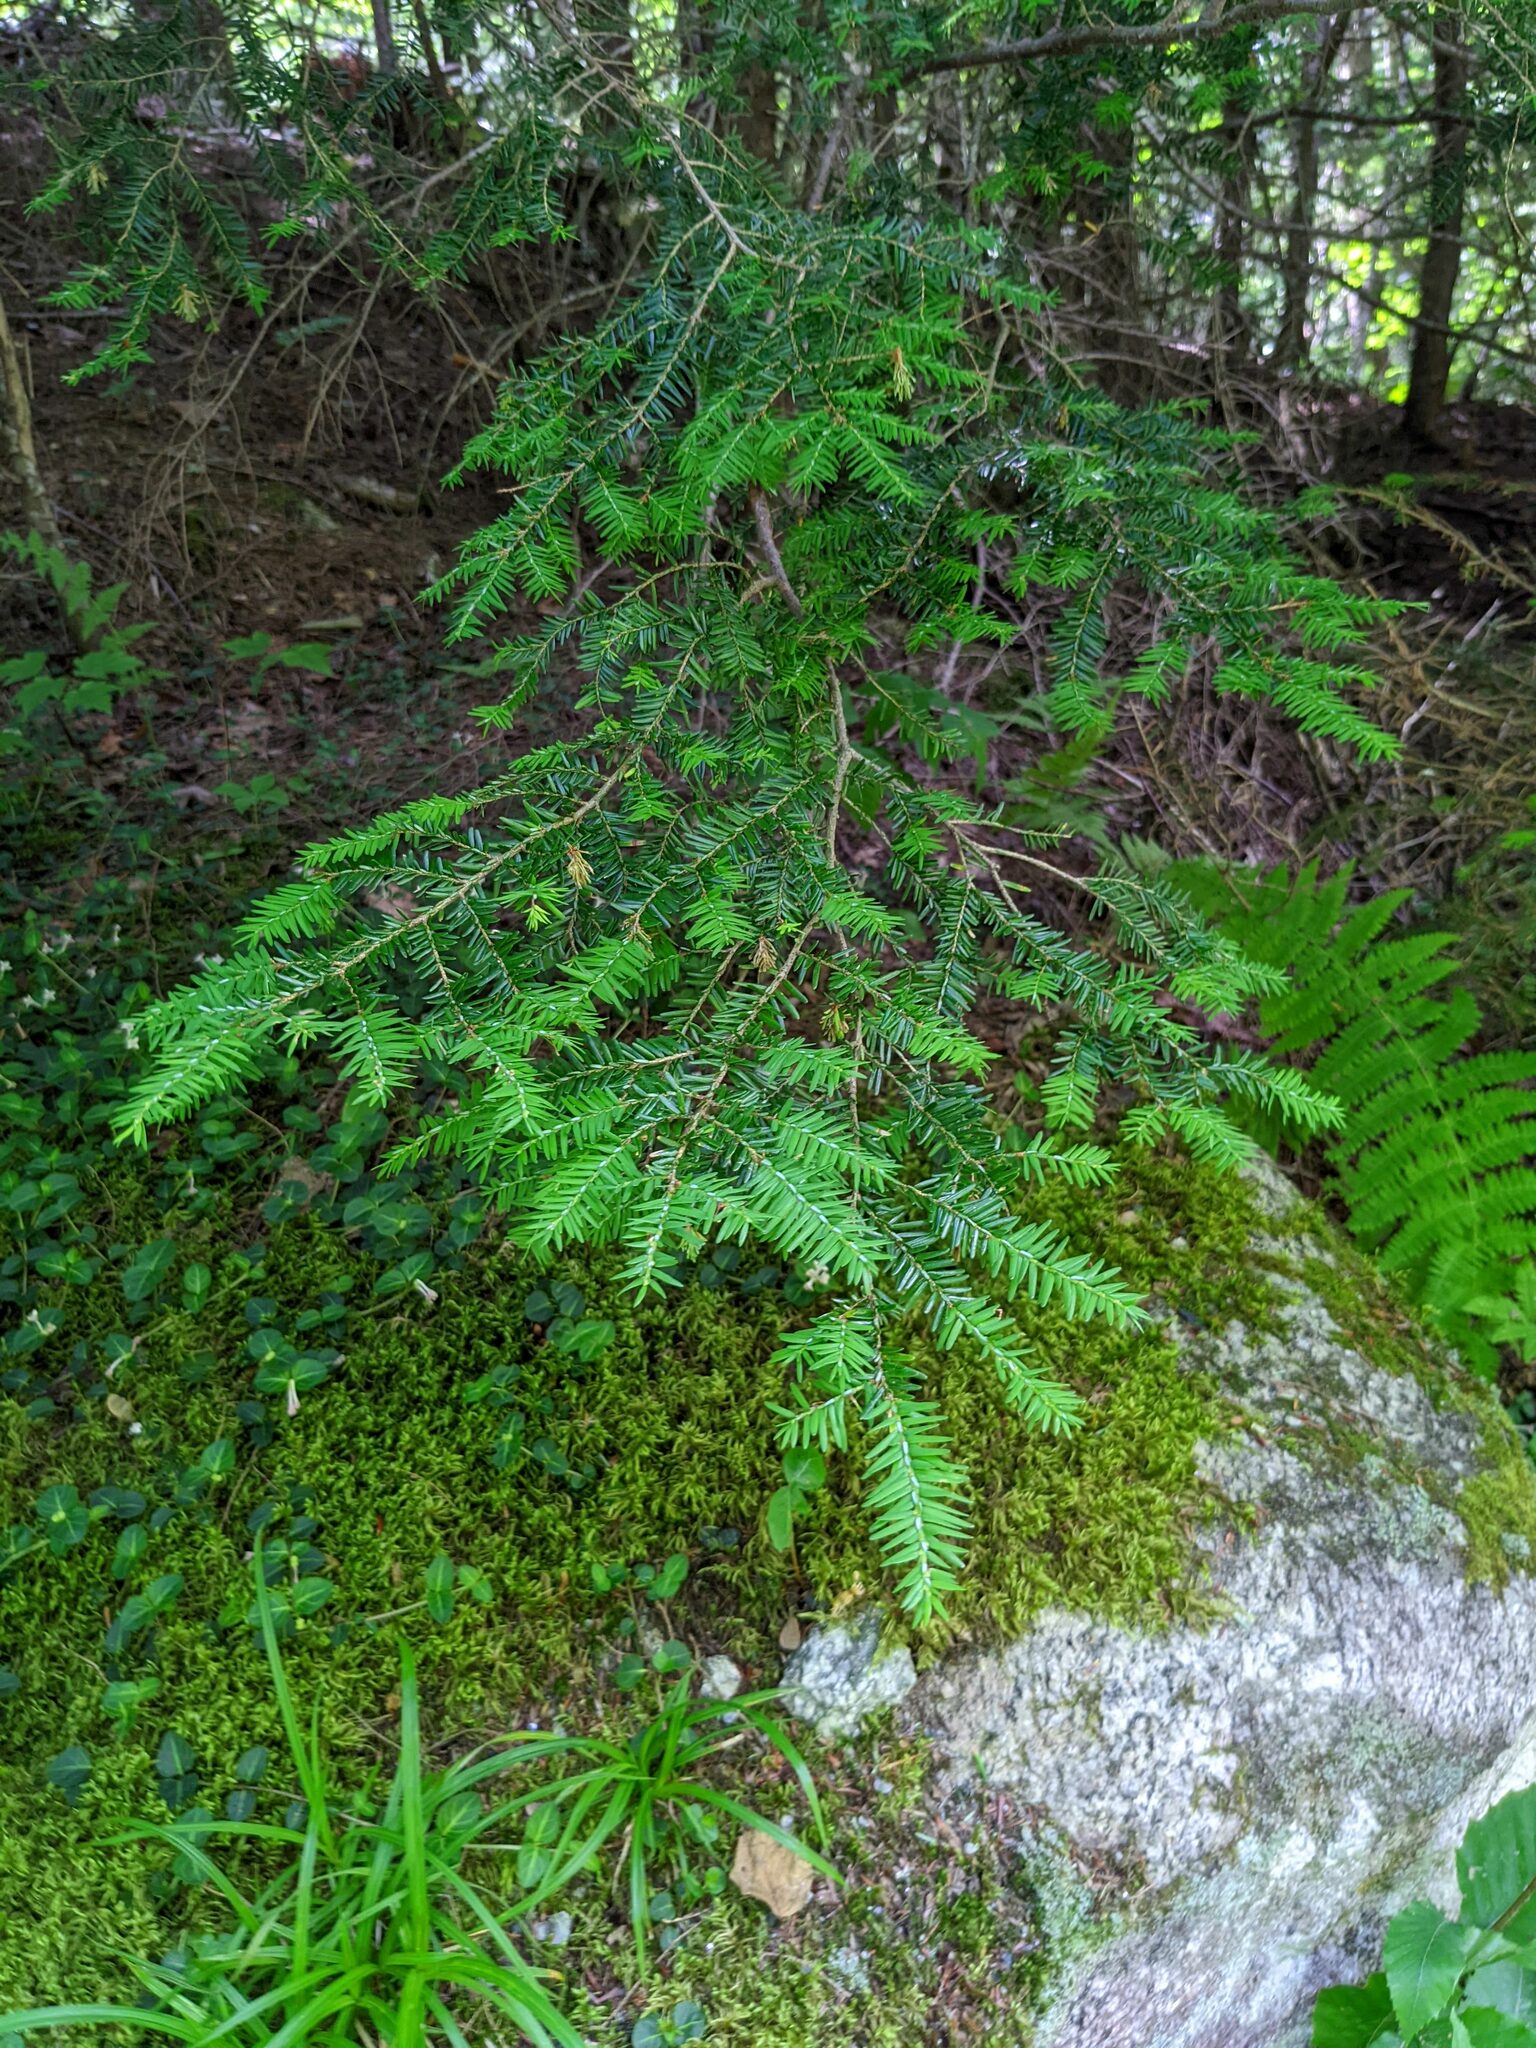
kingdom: Plantae
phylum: Tracheophyta
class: Pinopsida
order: Pinales
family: Pinaceae
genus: Tsuga
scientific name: Tsuga canadensis
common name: Eastern hemlock
